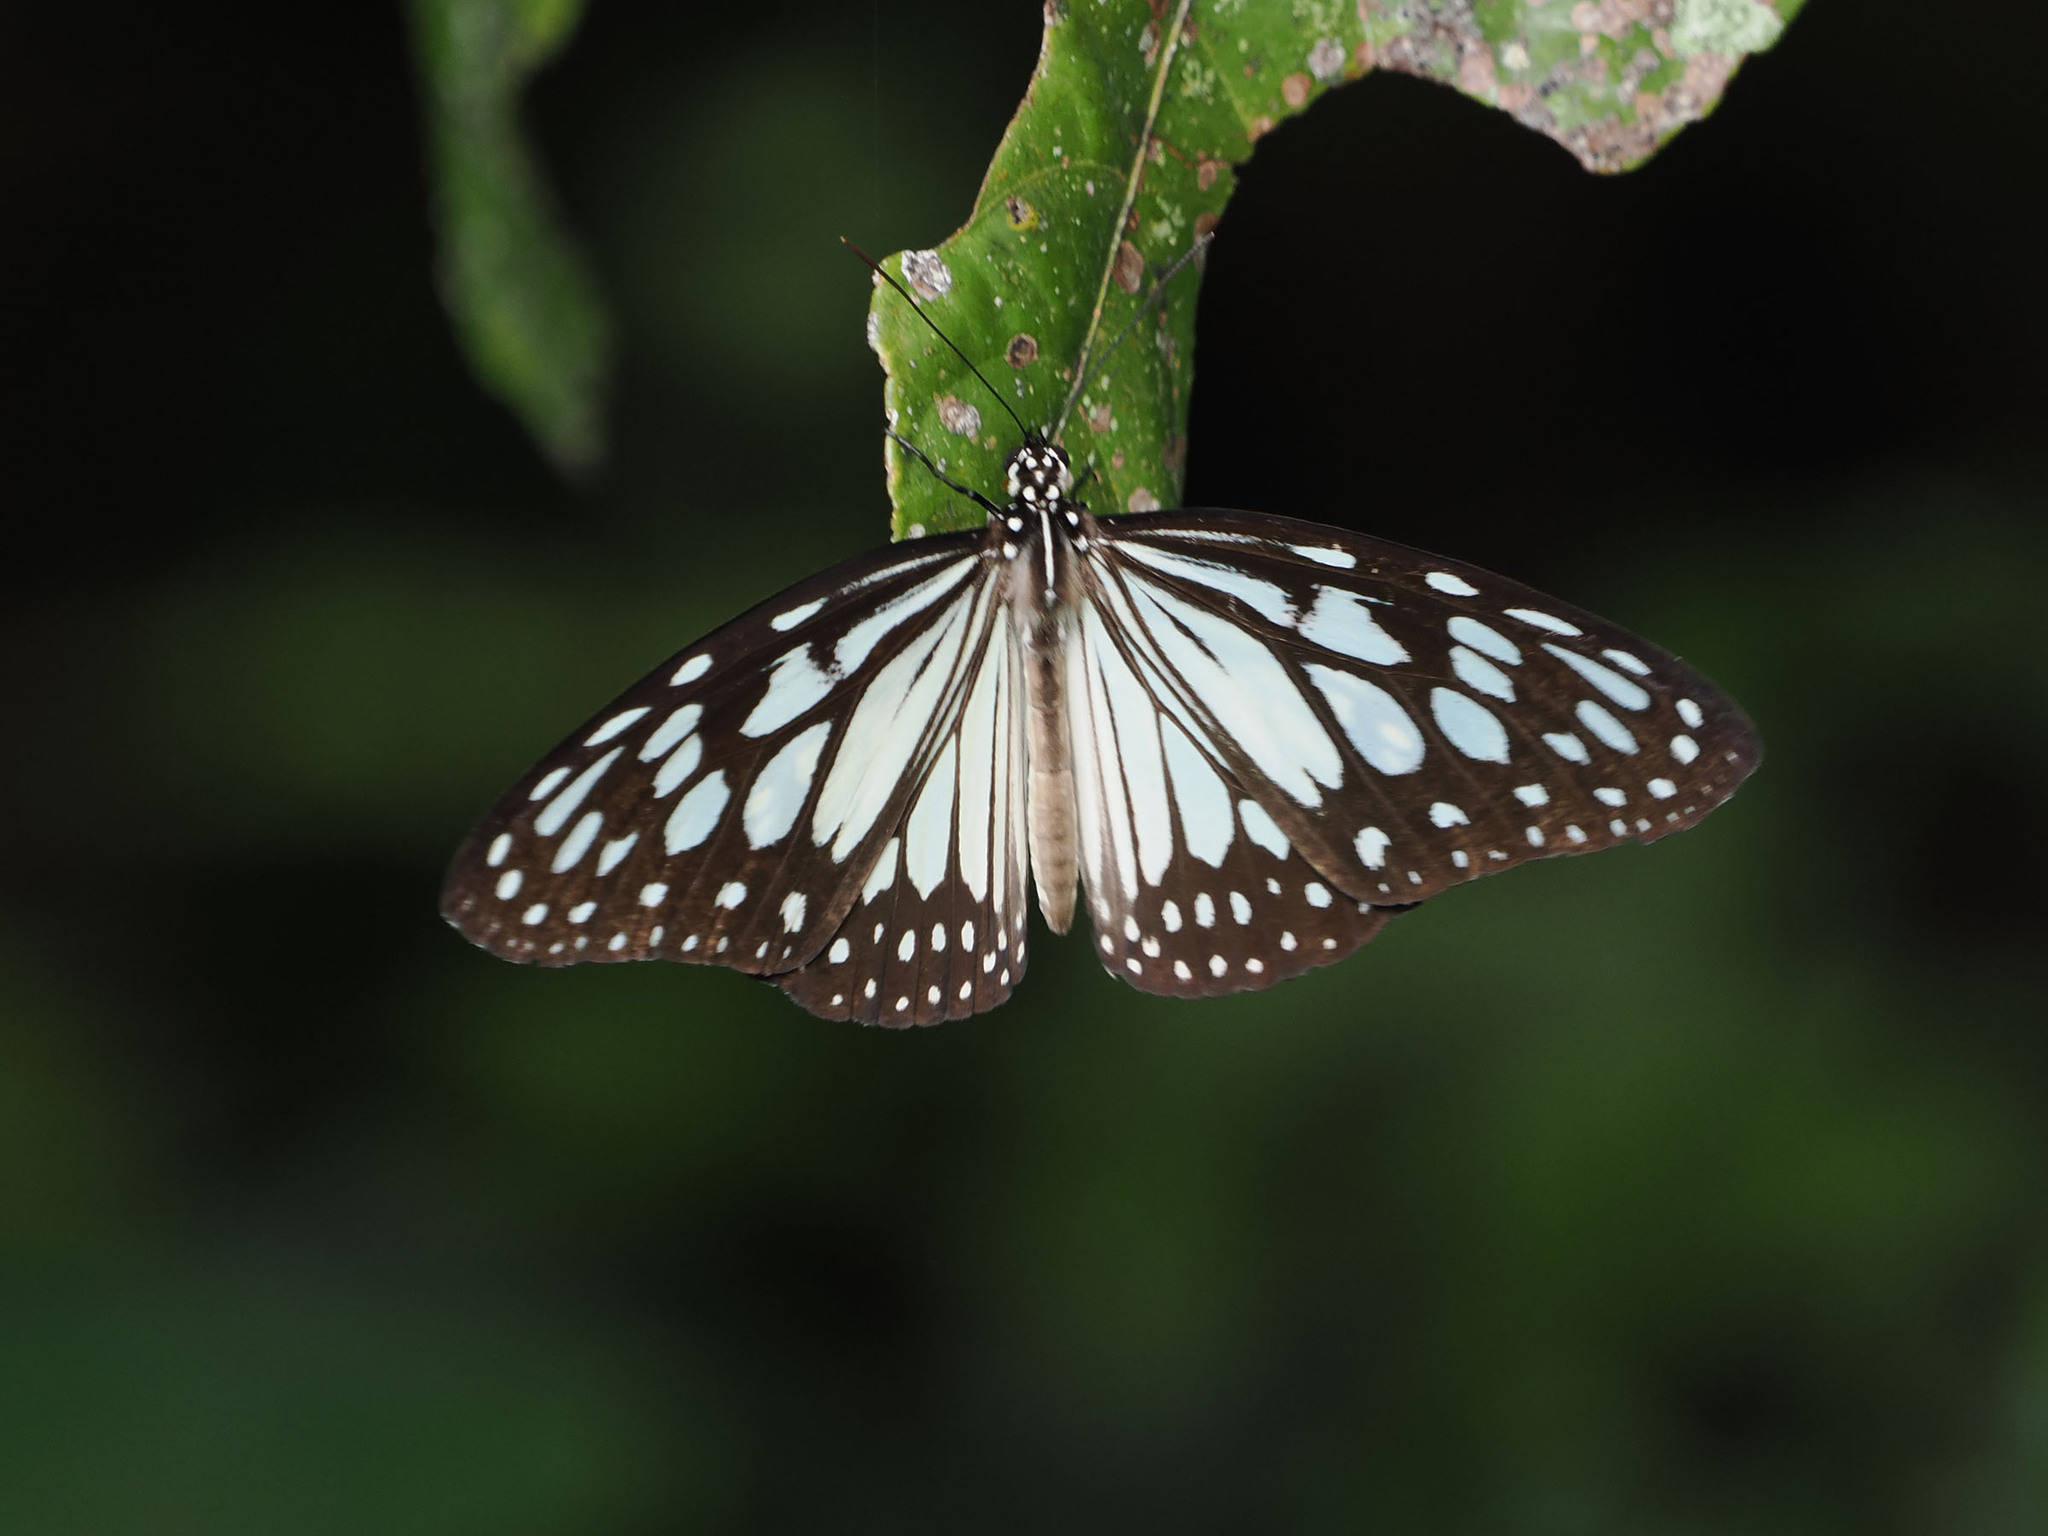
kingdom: Animalia
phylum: Arthropoda
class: Insecta
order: Lepidoptera
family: Nymphalidae
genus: Ideopsis
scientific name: Ideopsis juventa
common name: Grey glassy tiger
